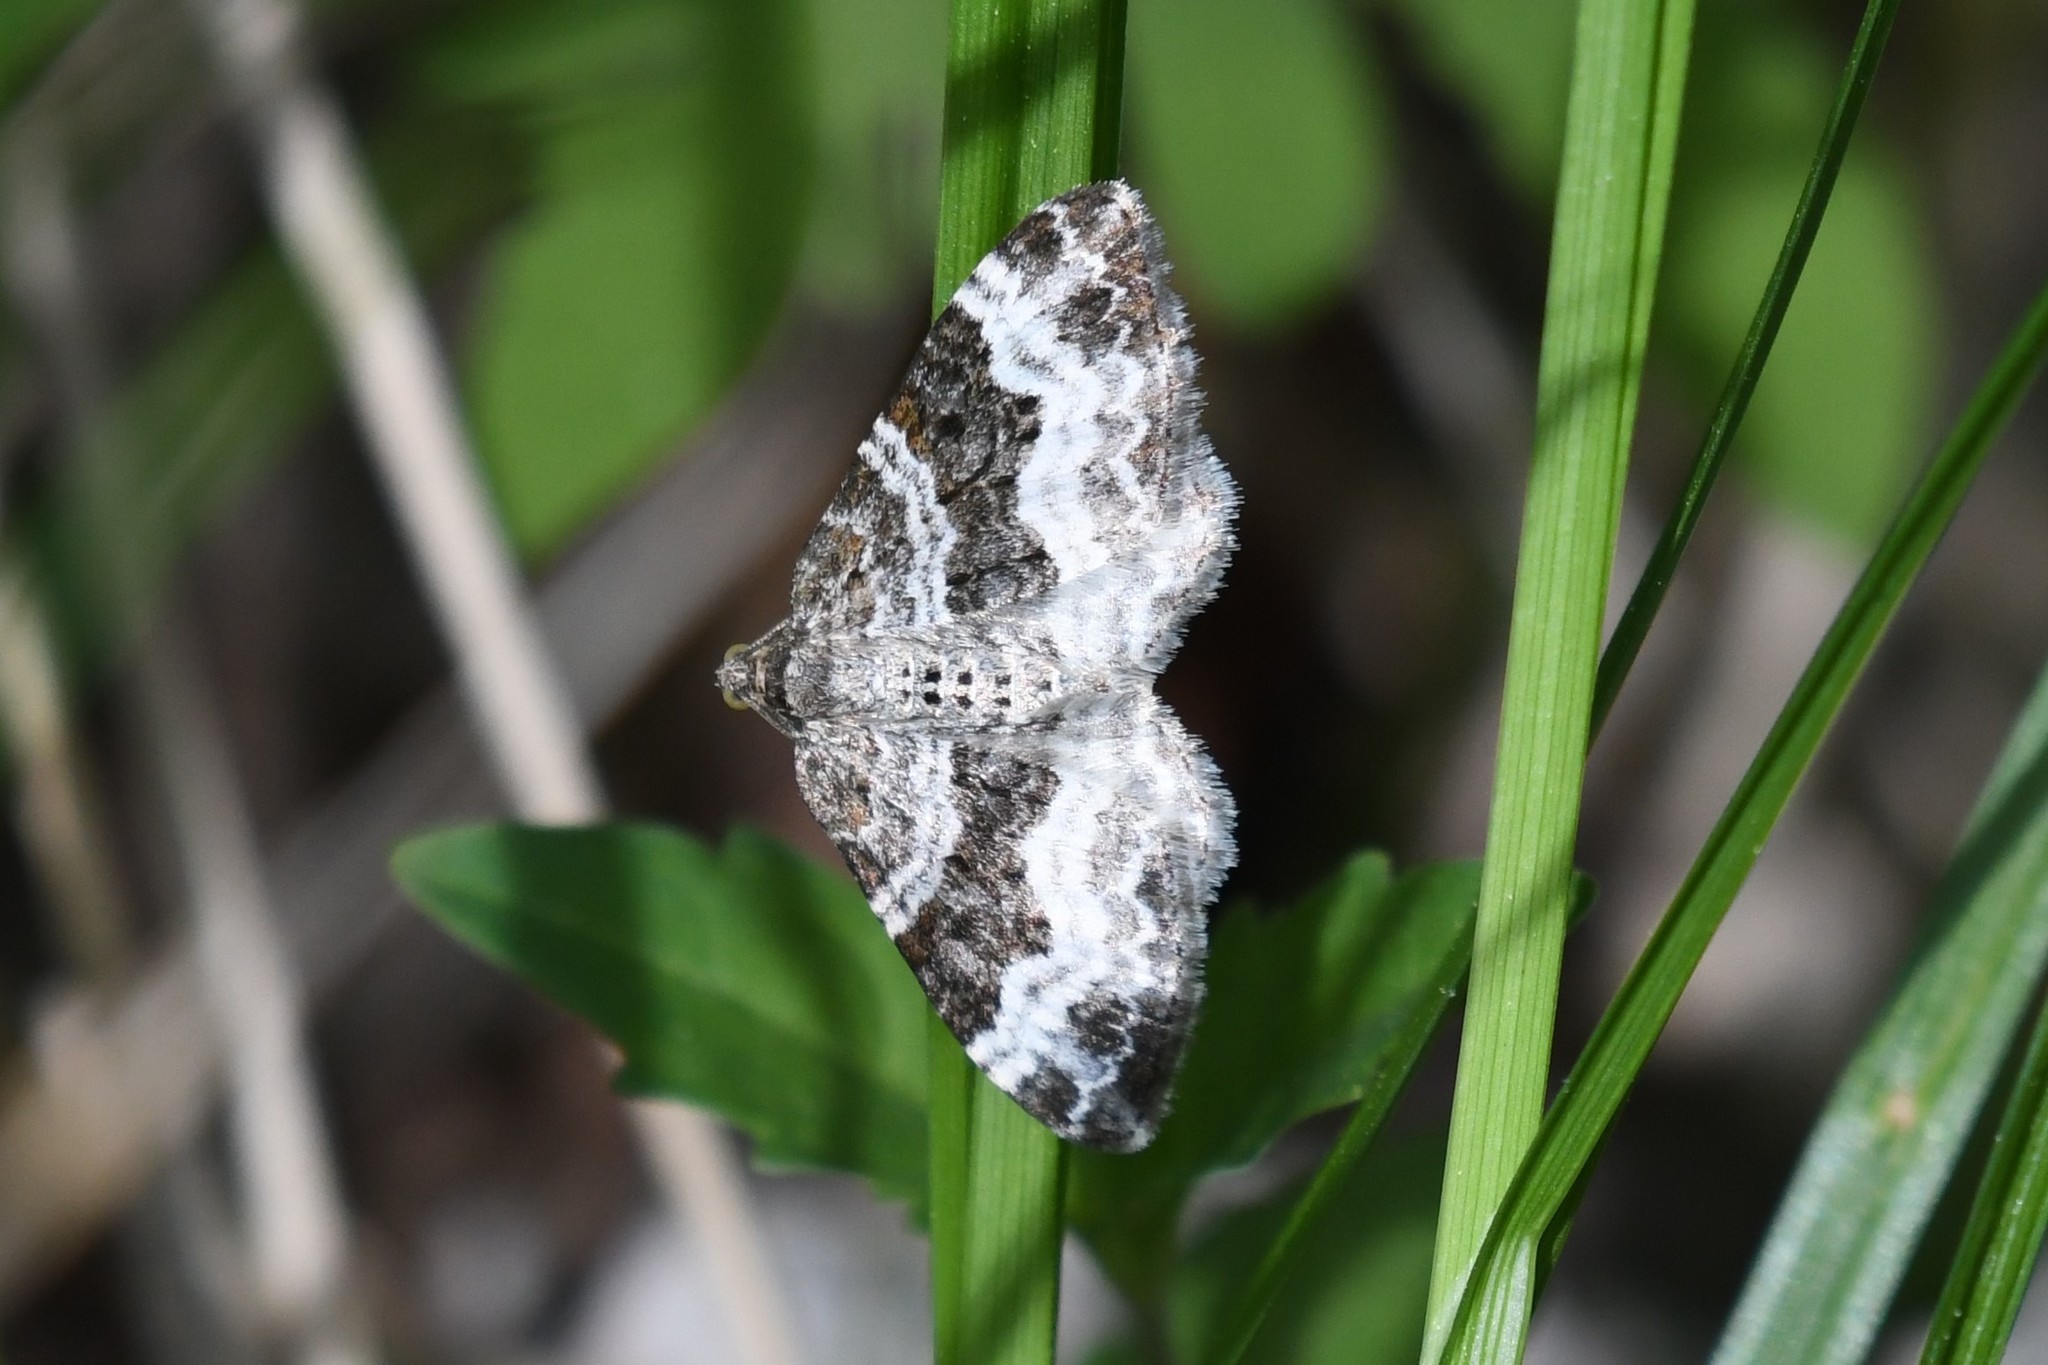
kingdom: Animalia
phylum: Arthropoda
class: Insecta
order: Lepidoptera
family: Geometridae
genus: Epirrhoe
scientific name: Epirrhoe alternata
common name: Common carpet
